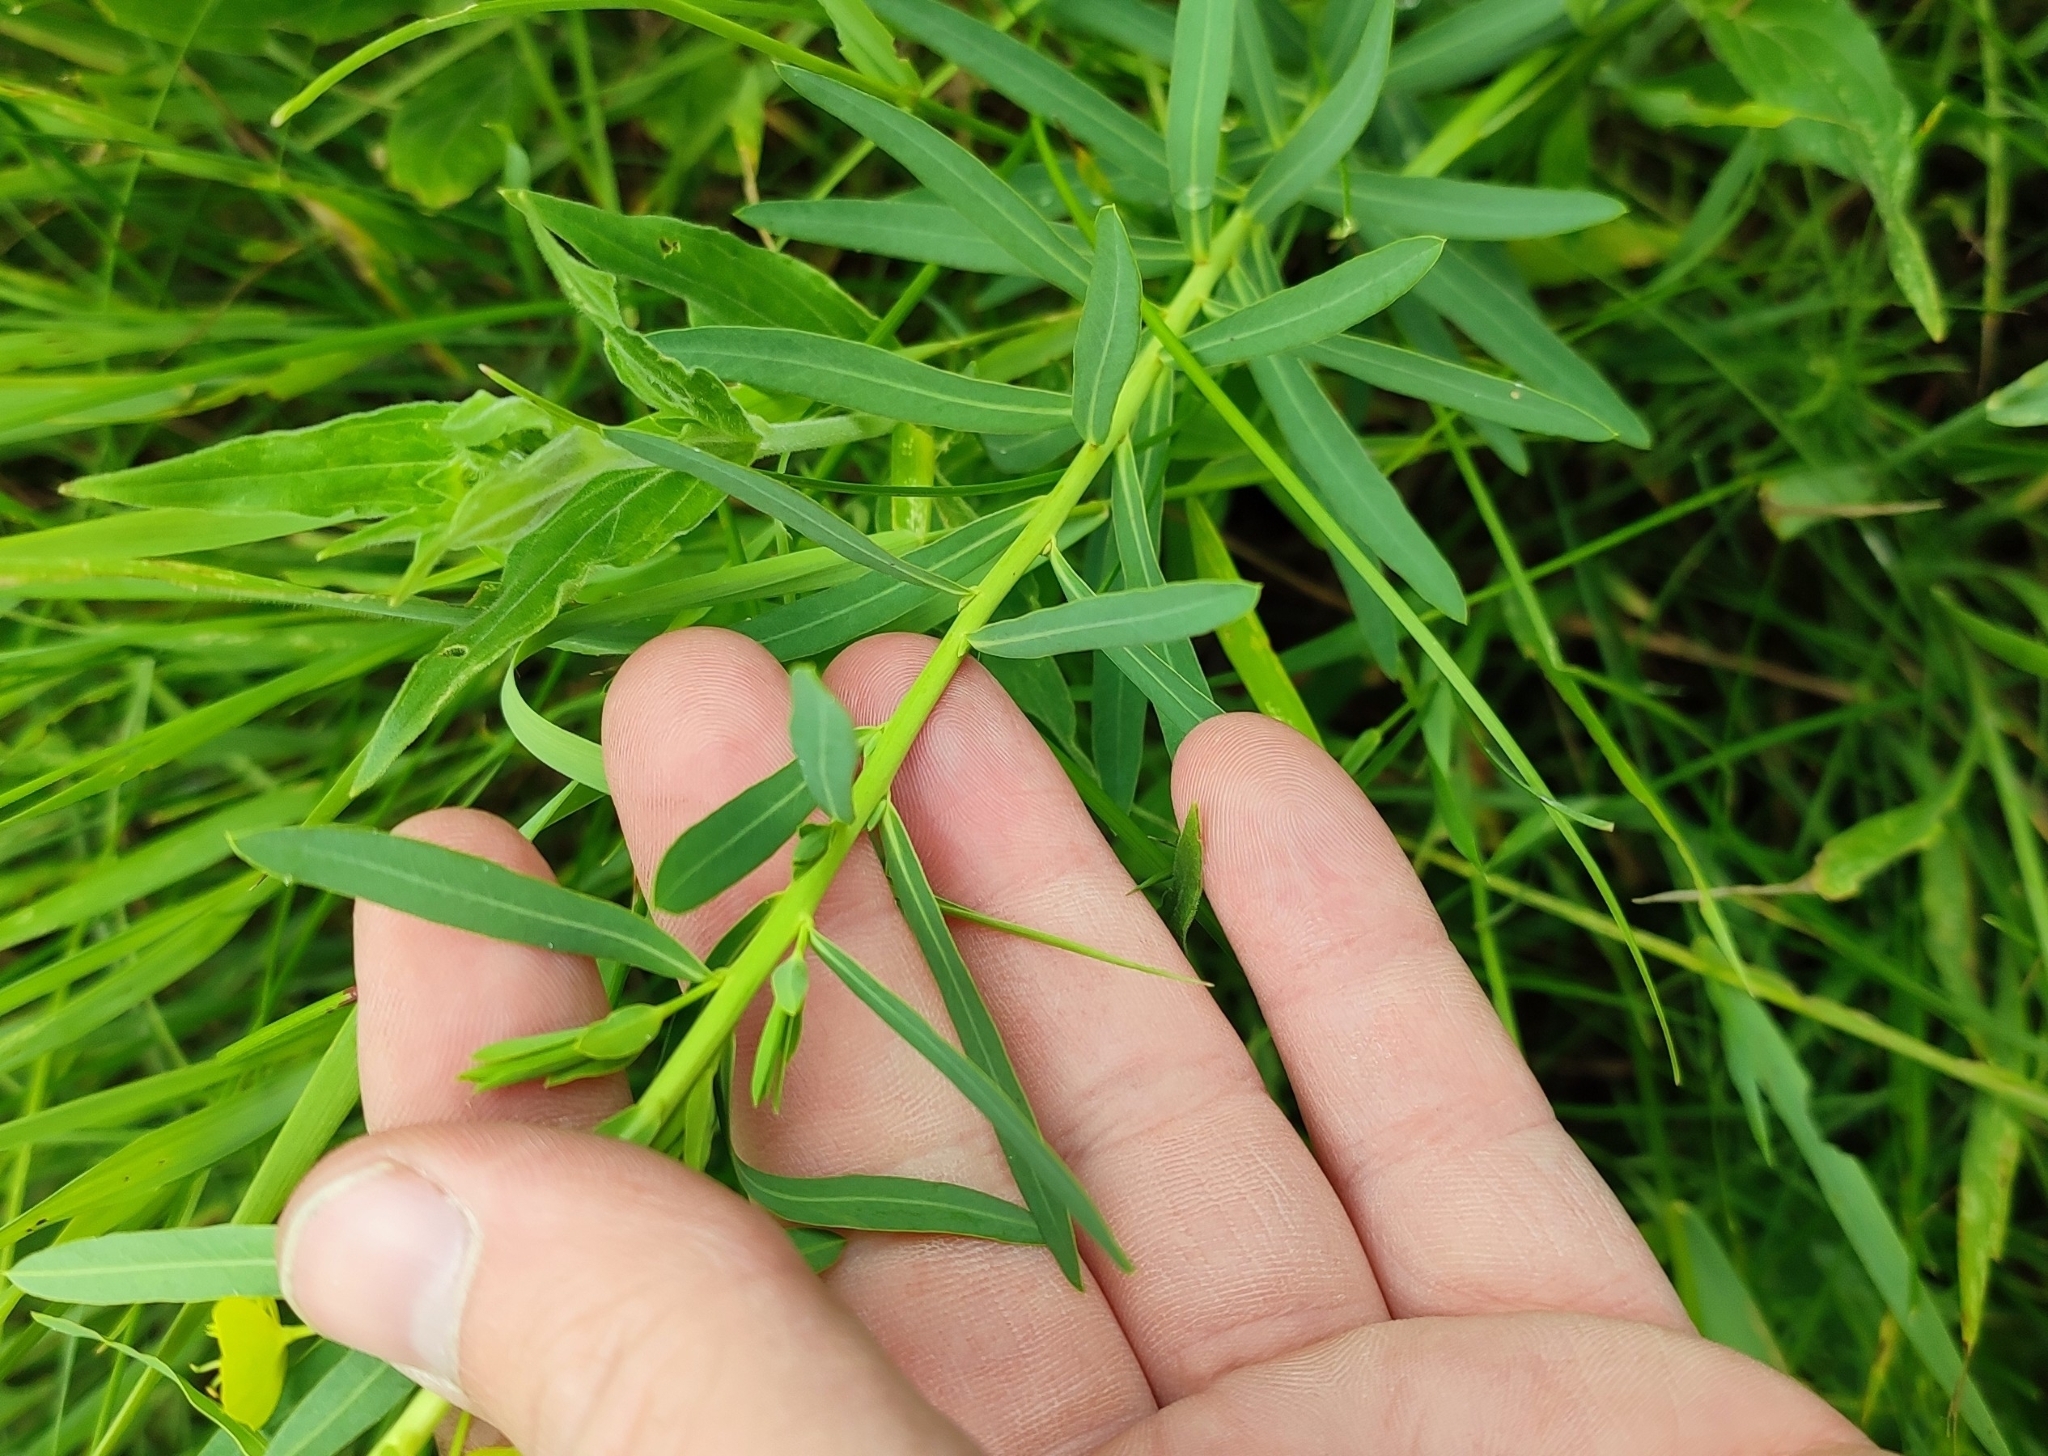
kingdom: Plantae
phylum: Tracheophyta
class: Magnoliopsida
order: Malpighiales
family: Euphorbiaceae
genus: Euphorbia
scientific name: Euphorbia virgata
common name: Leafy spurge
